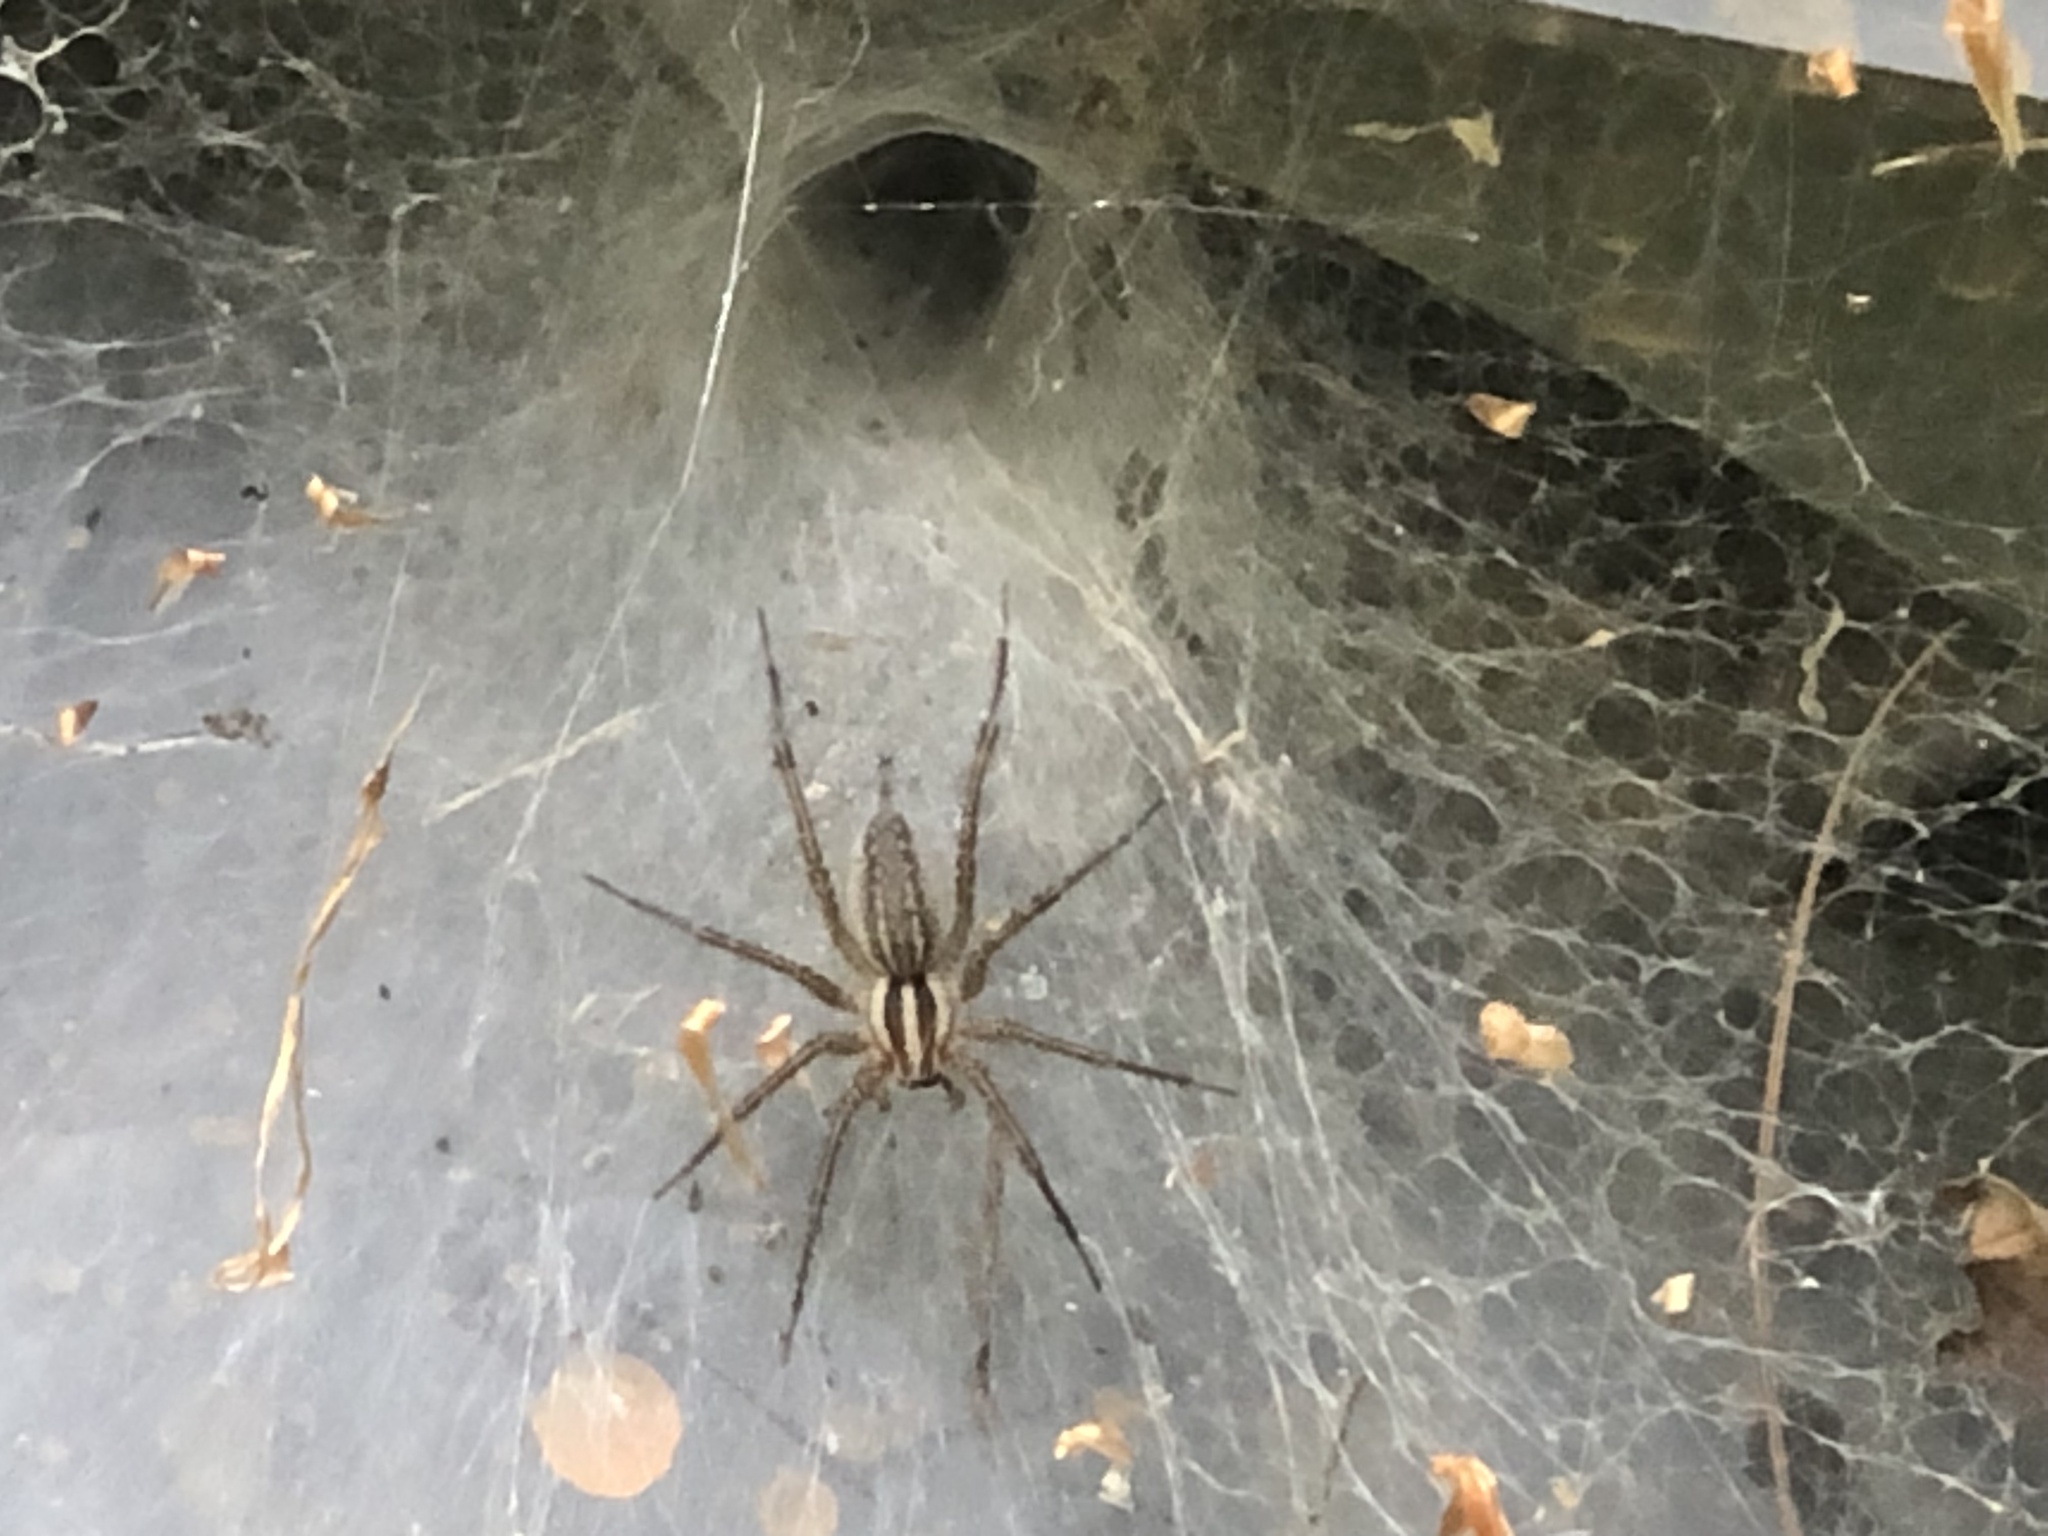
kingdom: Animalia
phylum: Arthropoda
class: Arachnida
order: Araneae
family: Agelenidae
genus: Agelenopsis
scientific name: Agelenopsis
